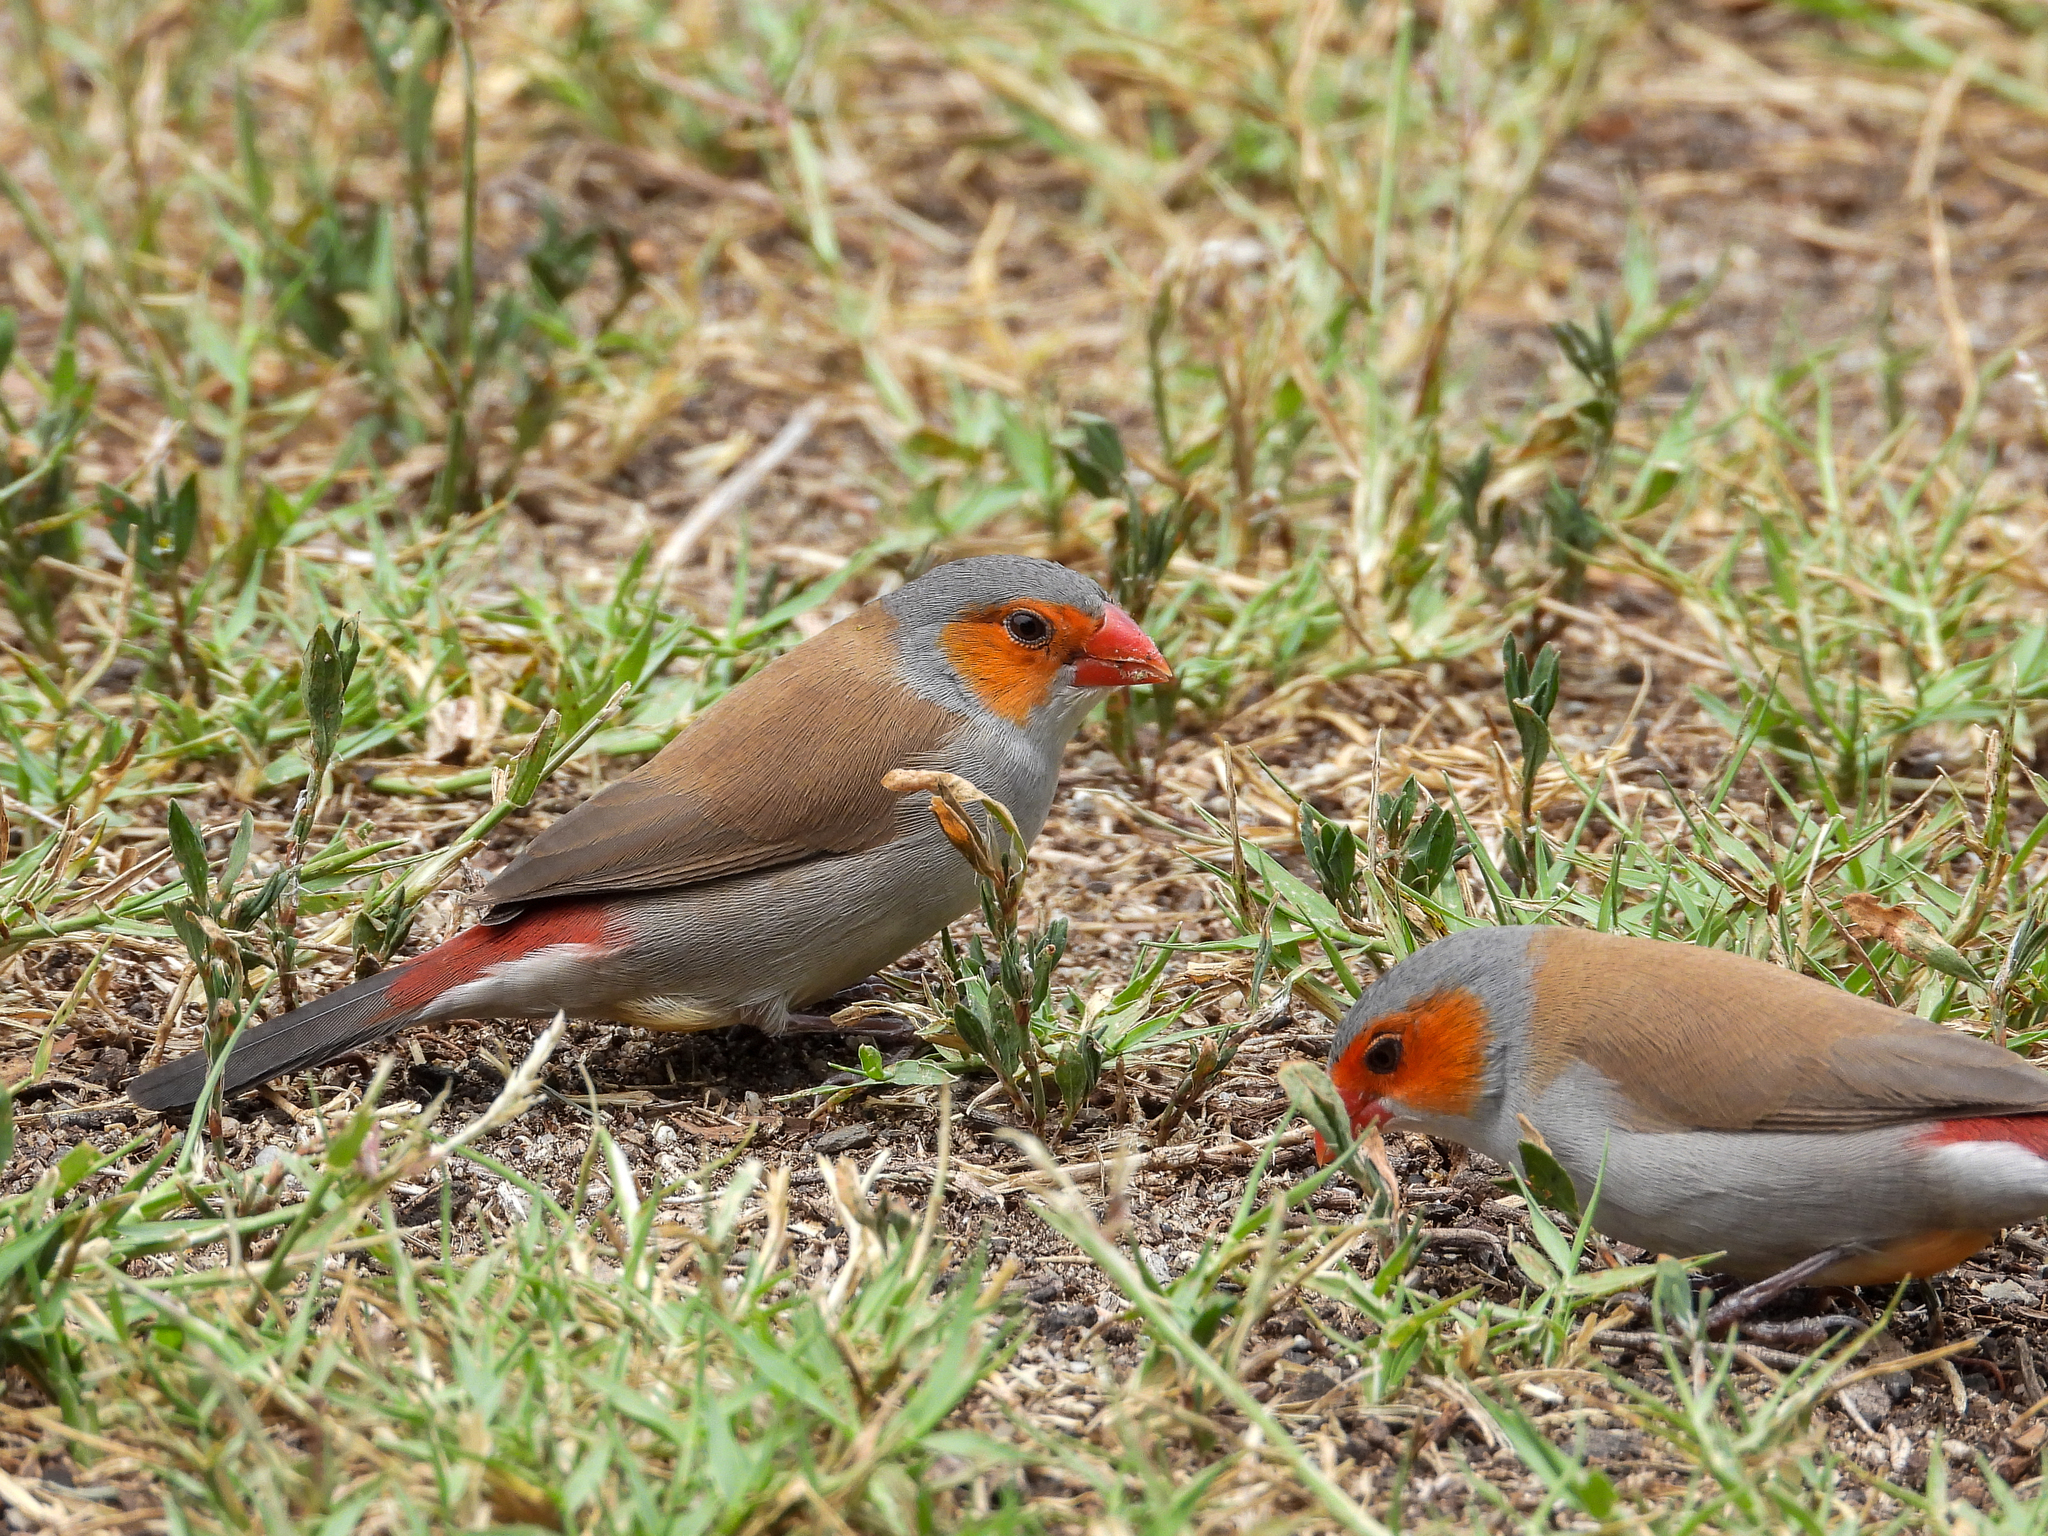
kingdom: Animalia
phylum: Chordata
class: Aves
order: Passeriformes
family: Estrildidae
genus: Estrilda
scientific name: Estrilda melpoda
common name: Orange-cheeked waxbill
